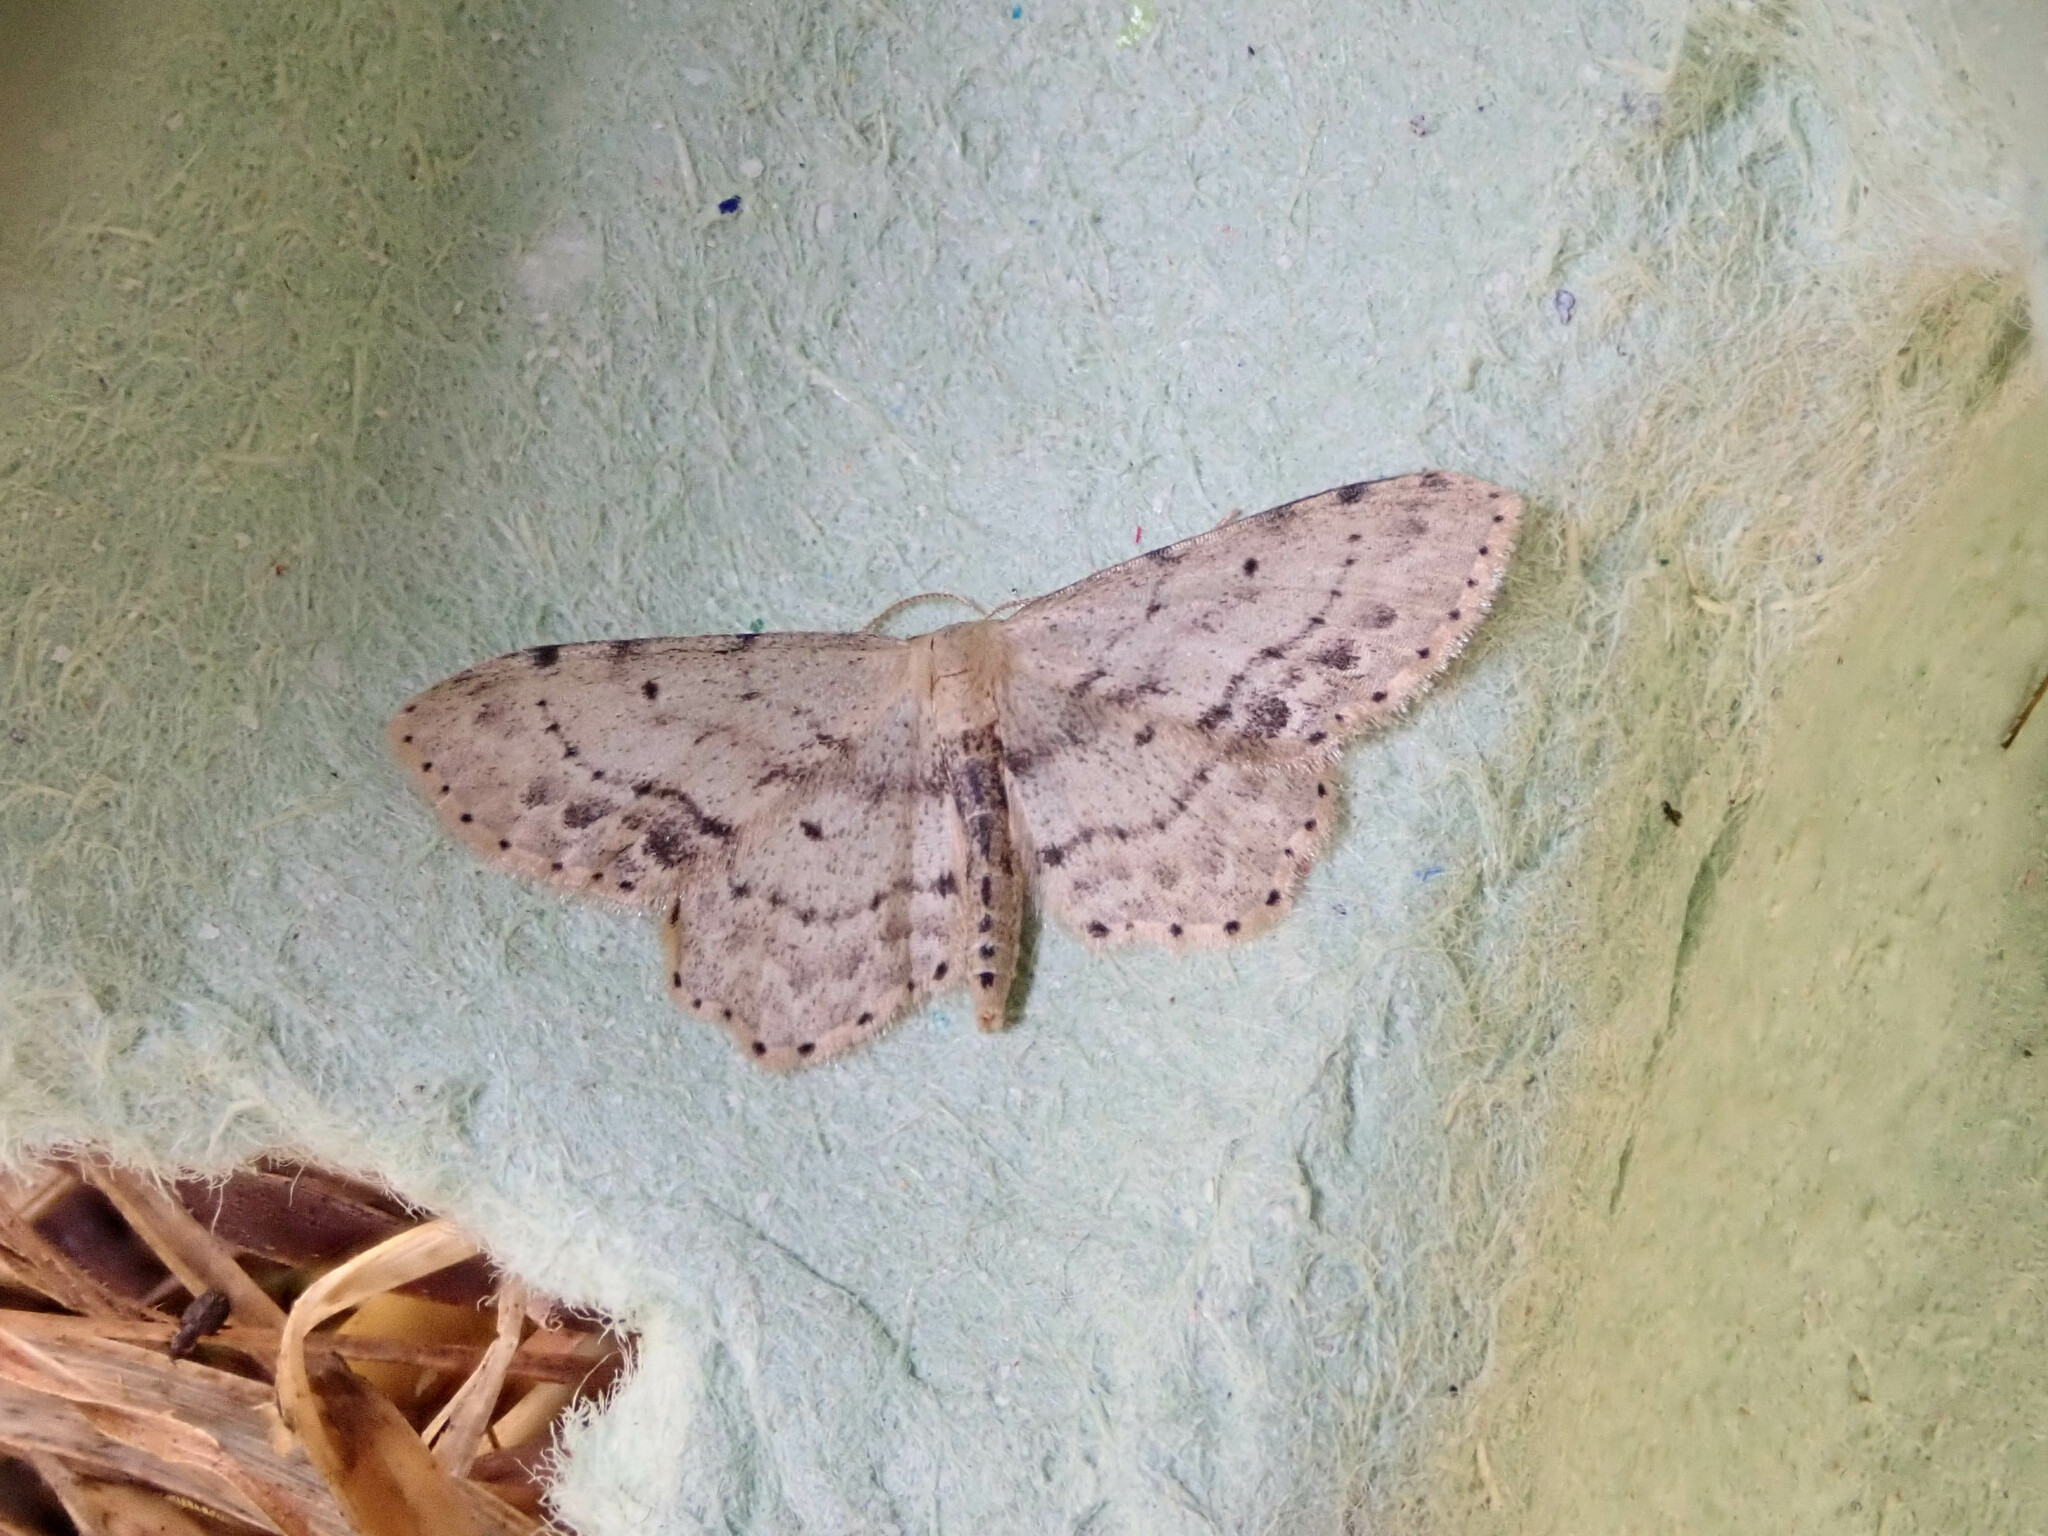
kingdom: Animalia
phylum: Arthropoda
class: Insecta
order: Lepidoptera
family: Geometridae
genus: Idaea
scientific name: Idaea dimidiata
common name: Single-dotted wave
